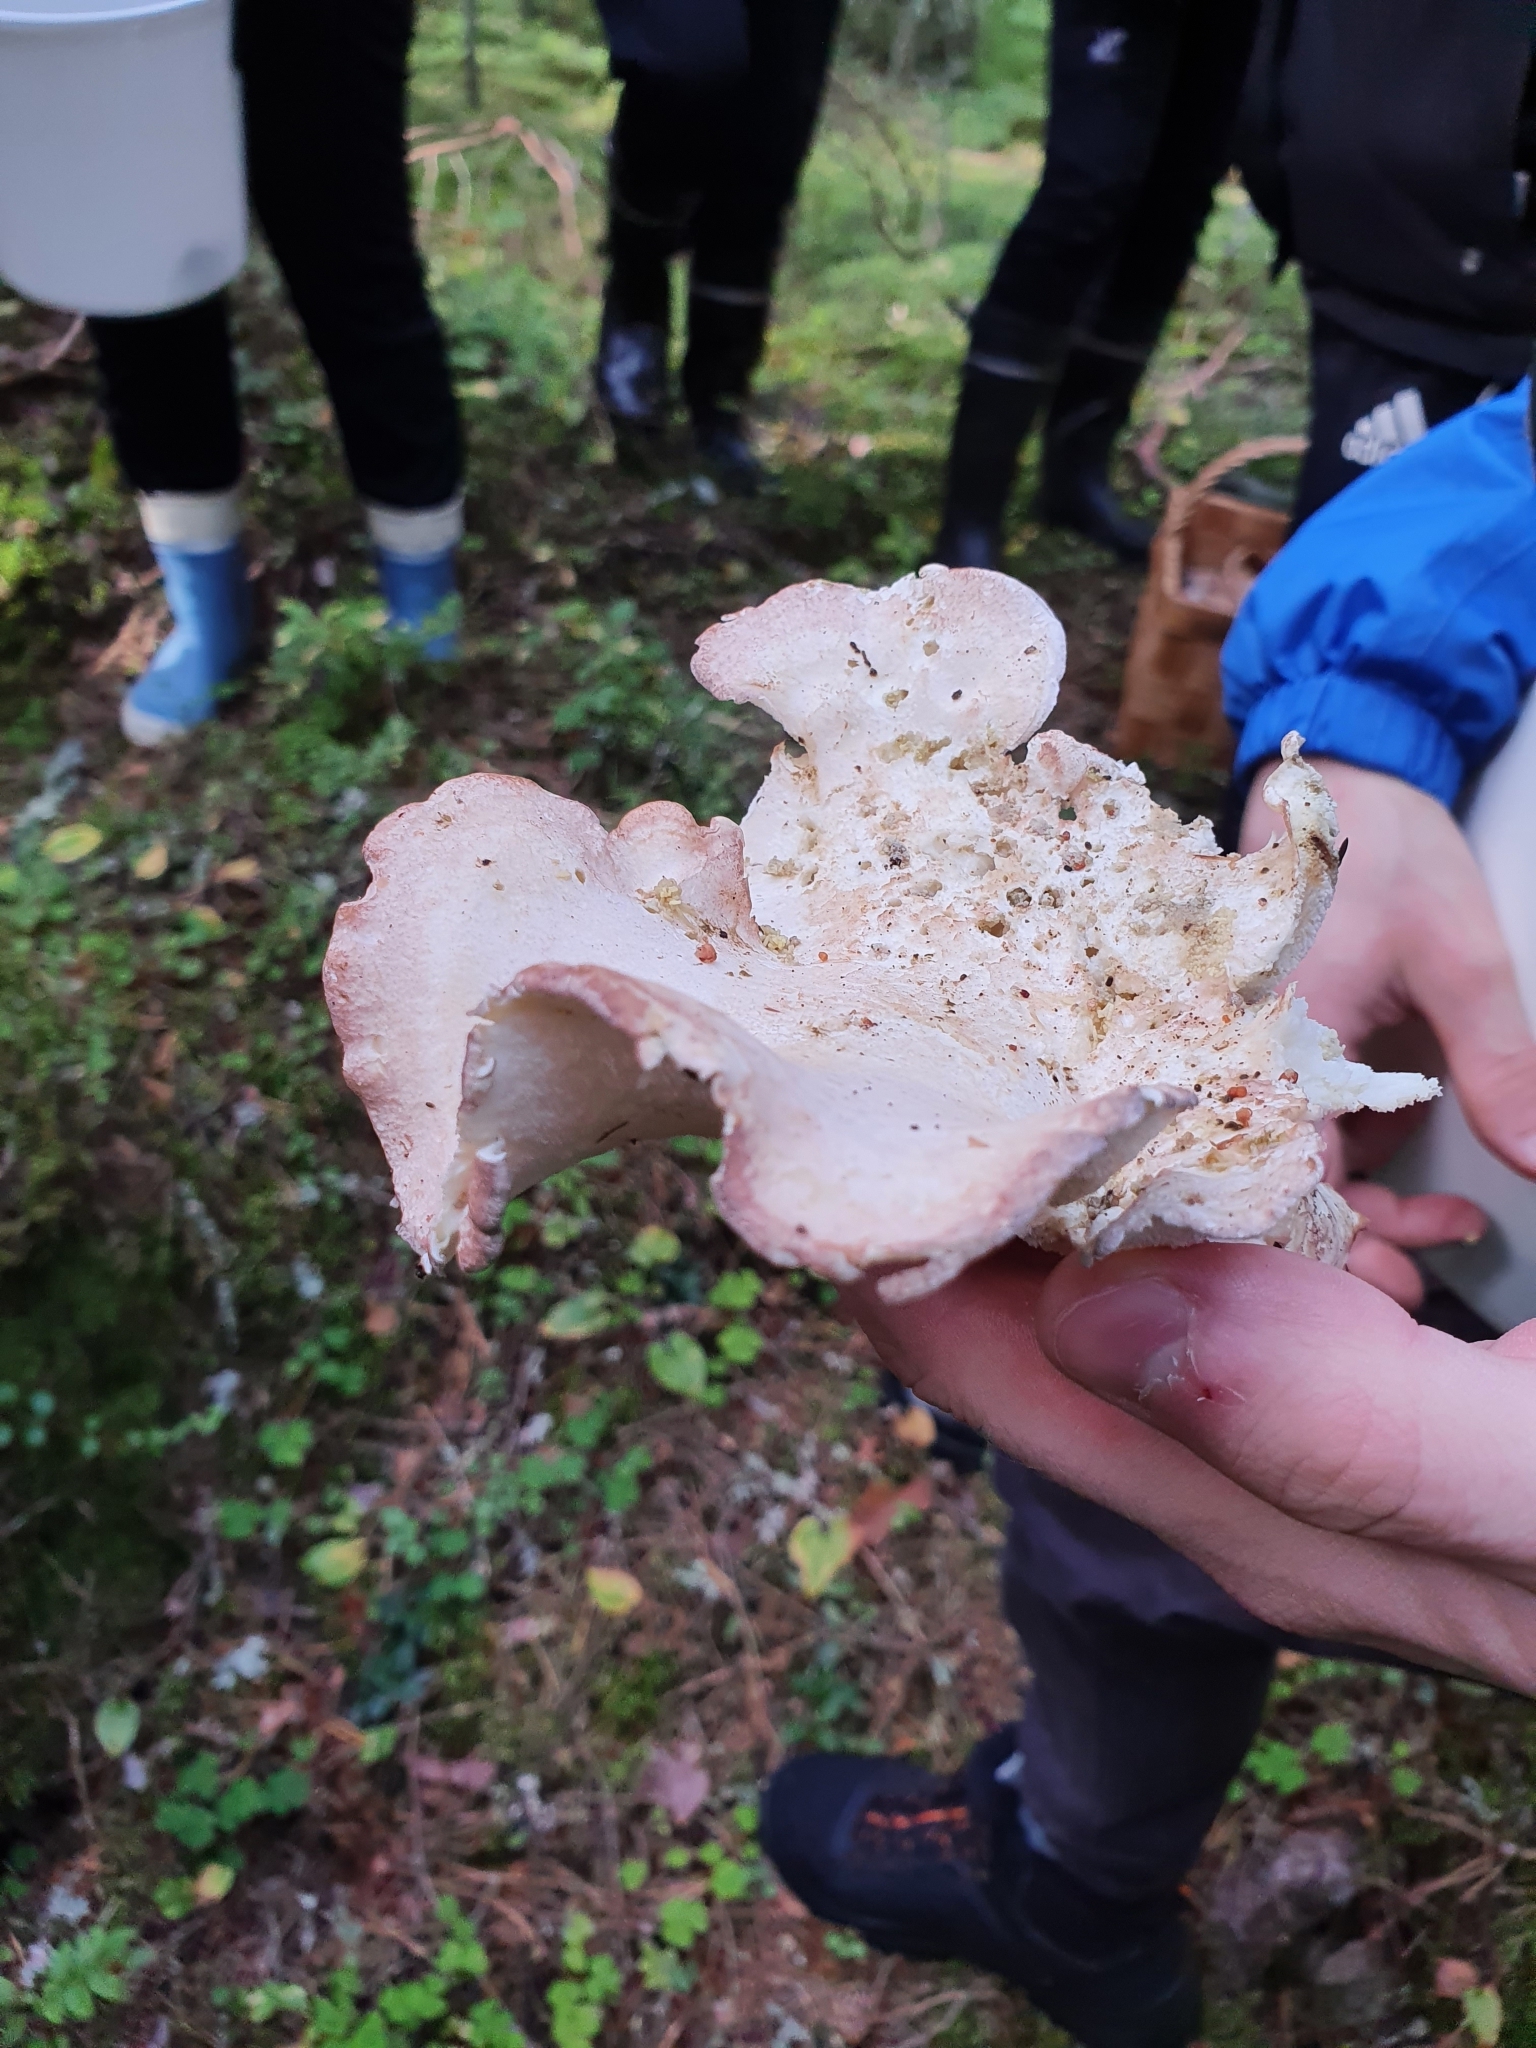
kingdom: Fungi
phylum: Basidiomycota
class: Agaricomycetes
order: Russulales
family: Albatrellaceae
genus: Albatrellus
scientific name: Albatrellus ovinus
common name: Forest lamb
